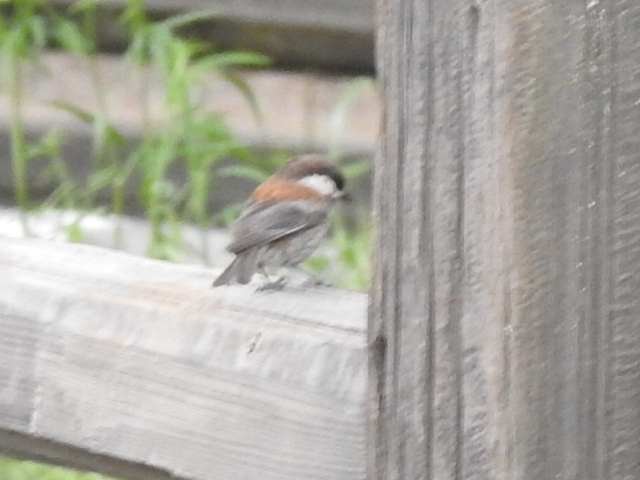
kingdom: Animalia
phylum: Chordata
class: Aves
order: Passeriformes
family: Paridae
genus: Poecile
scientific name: Poecile rufescens
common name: Chestnut-backed chickadee
